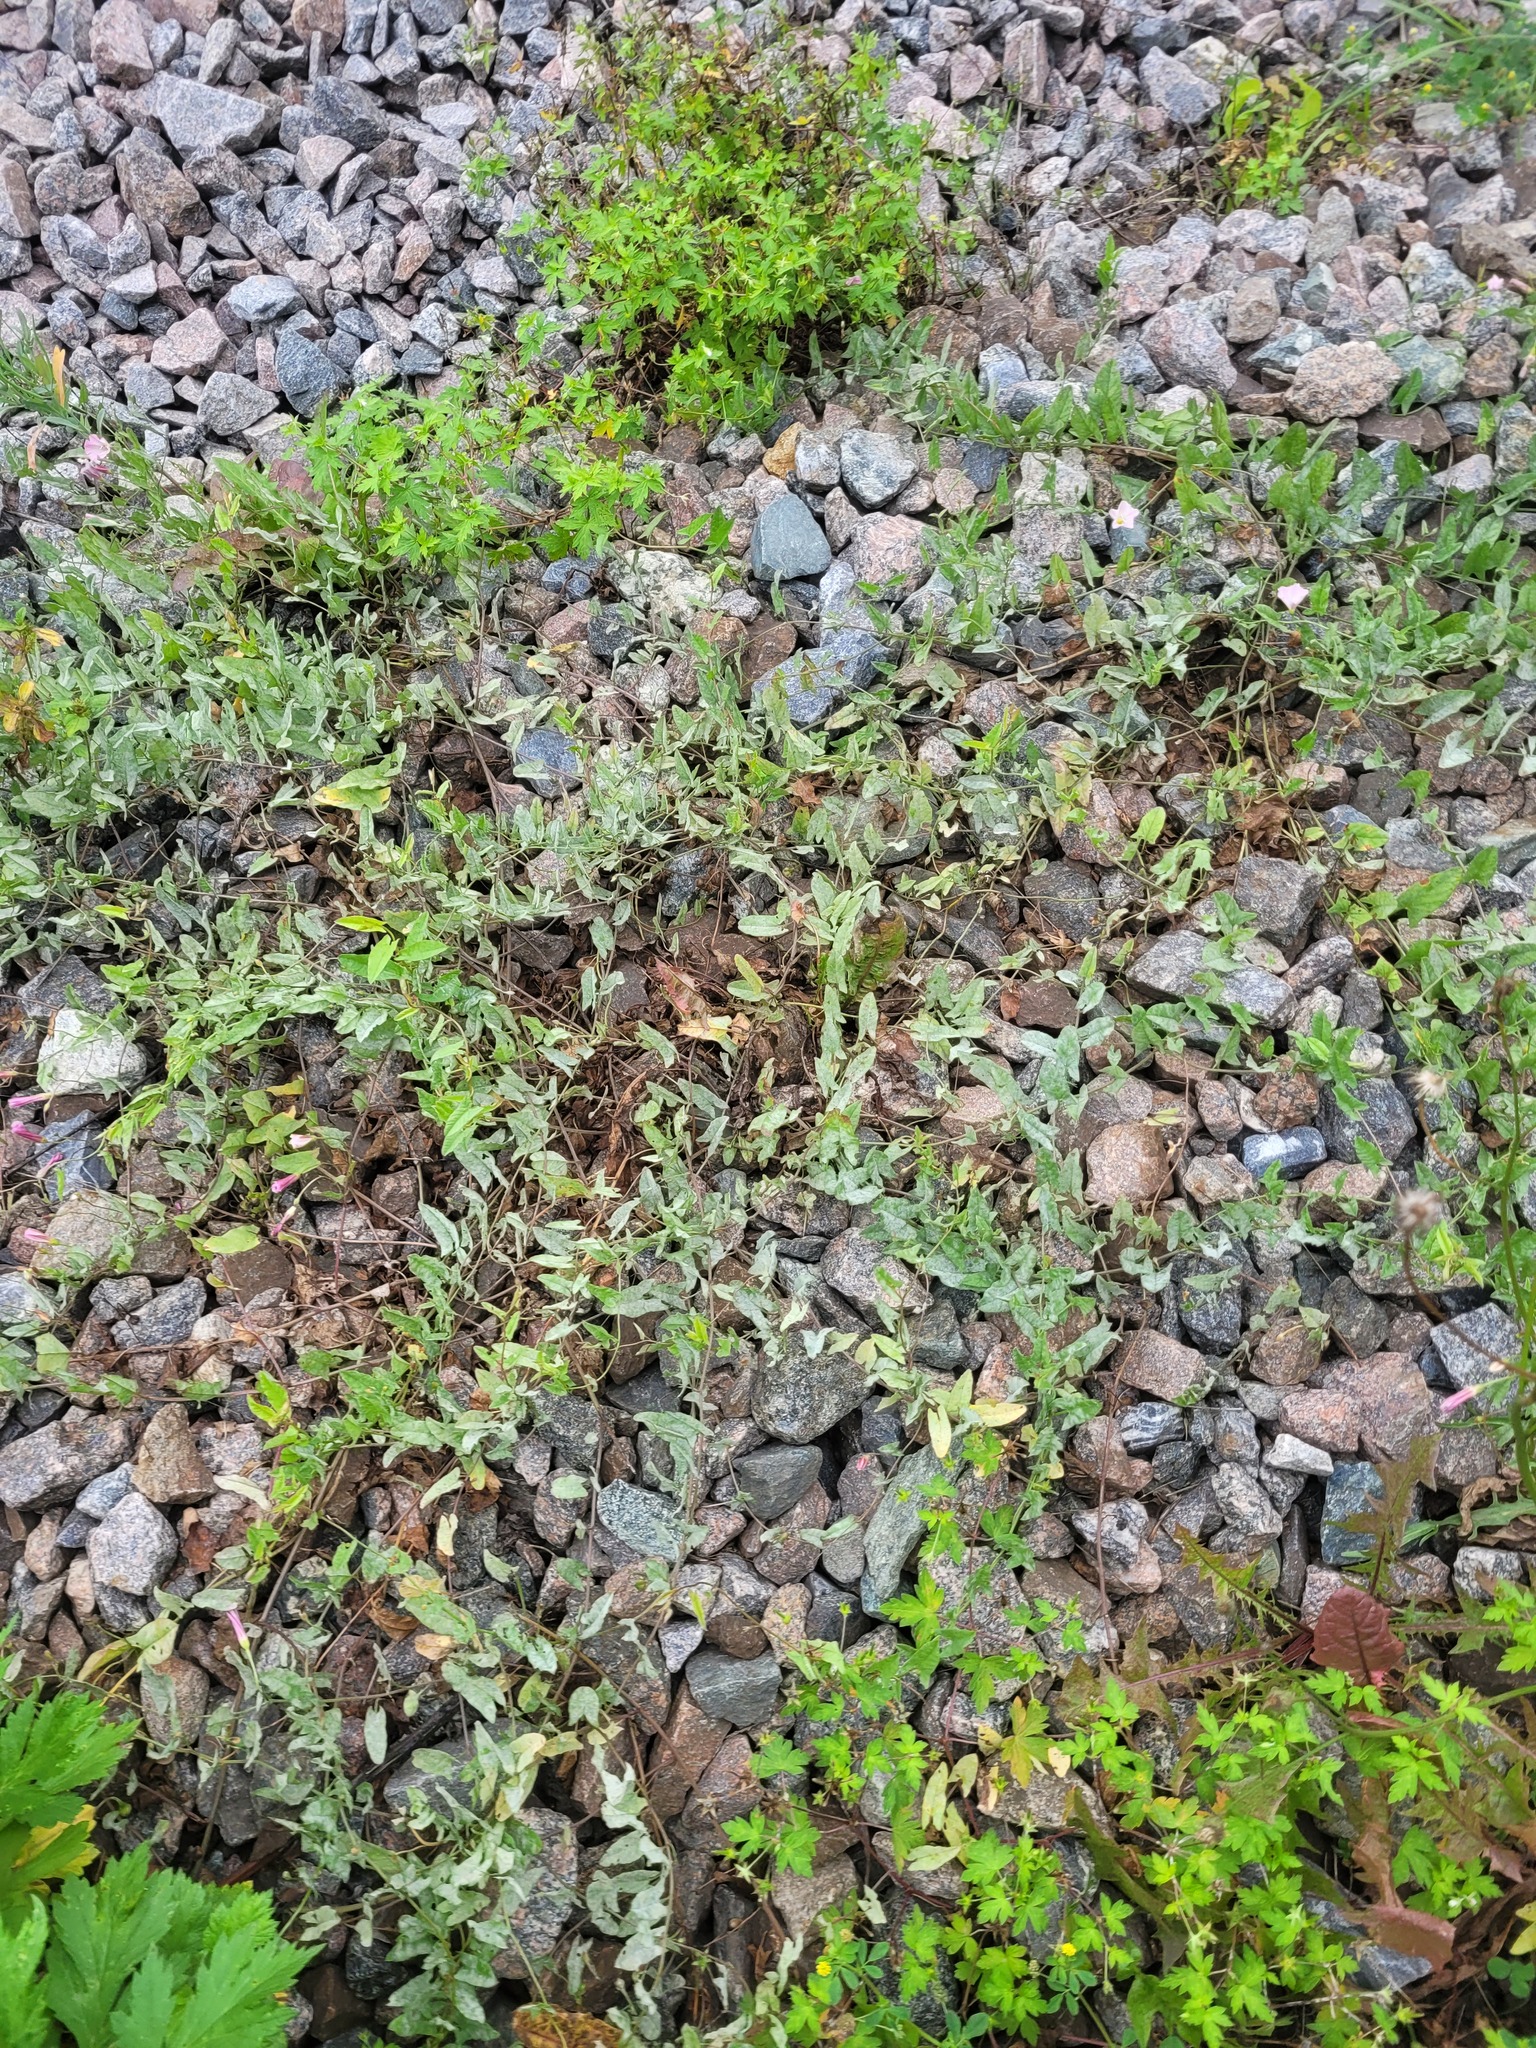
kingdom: Plantae
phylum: Tracheophyta
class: Magnoliopsida
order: Solanales
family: Convolvulaceae
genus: Convolvulus
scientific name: Convolvulus arvensis
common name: Field bindweed
